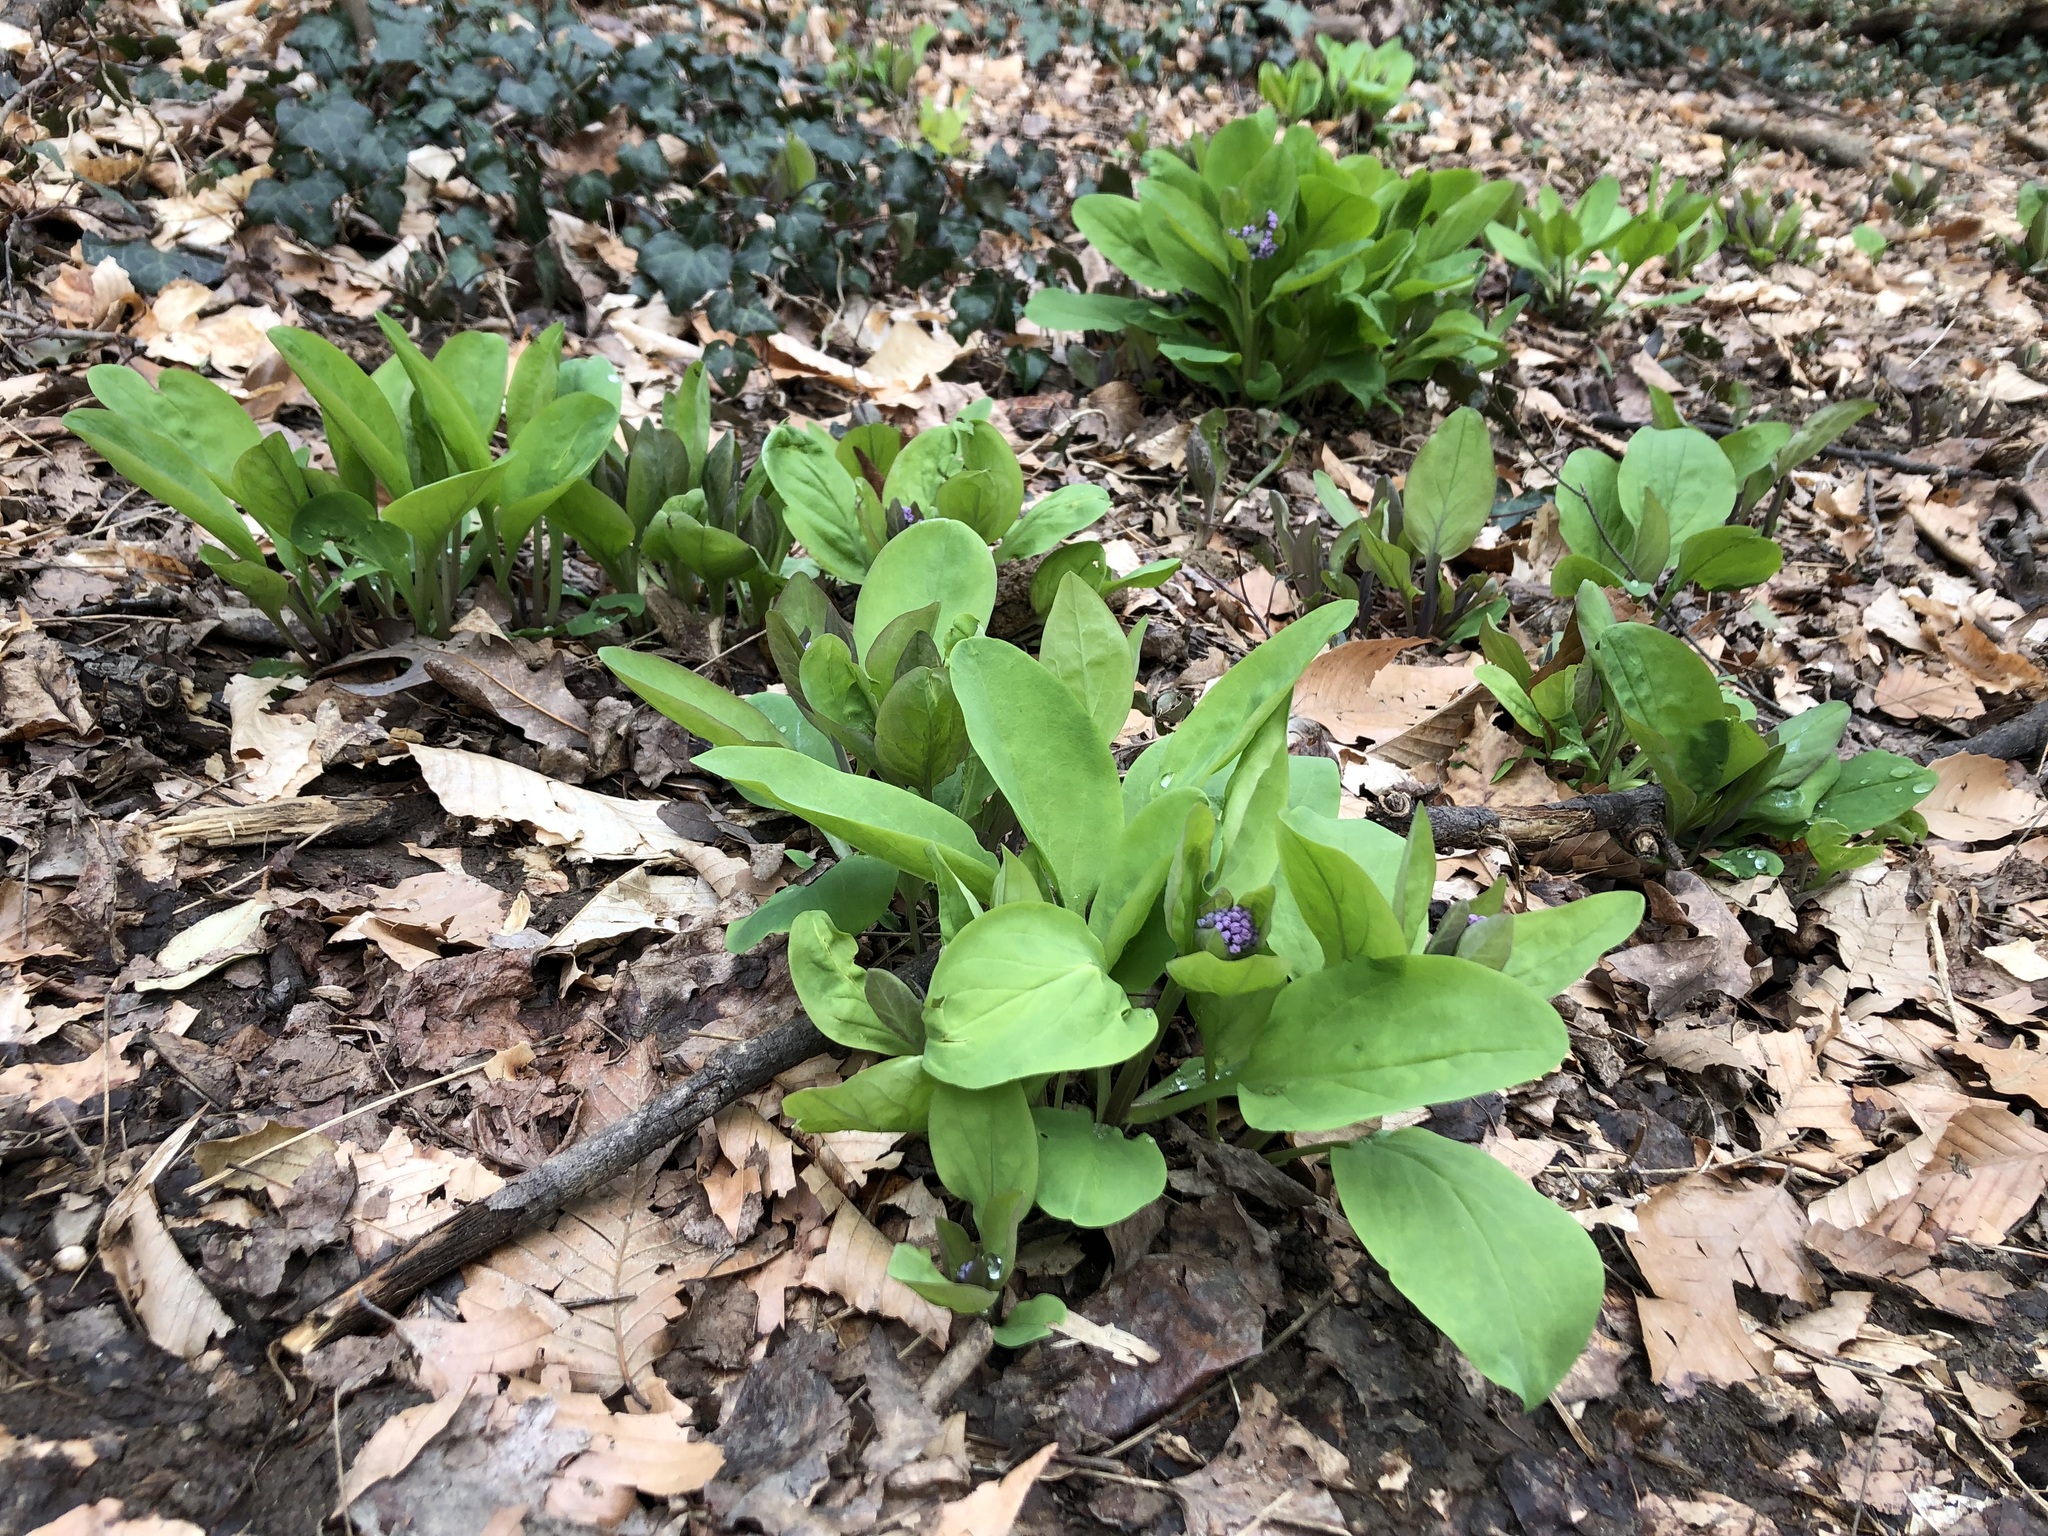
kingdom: Plantae
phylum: Tracheophyta
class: Magnoliopsida
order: Boraginales
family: Boraginaceae
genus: Mertensia
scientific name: Mertensia virginica
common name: Virginia bluebells
